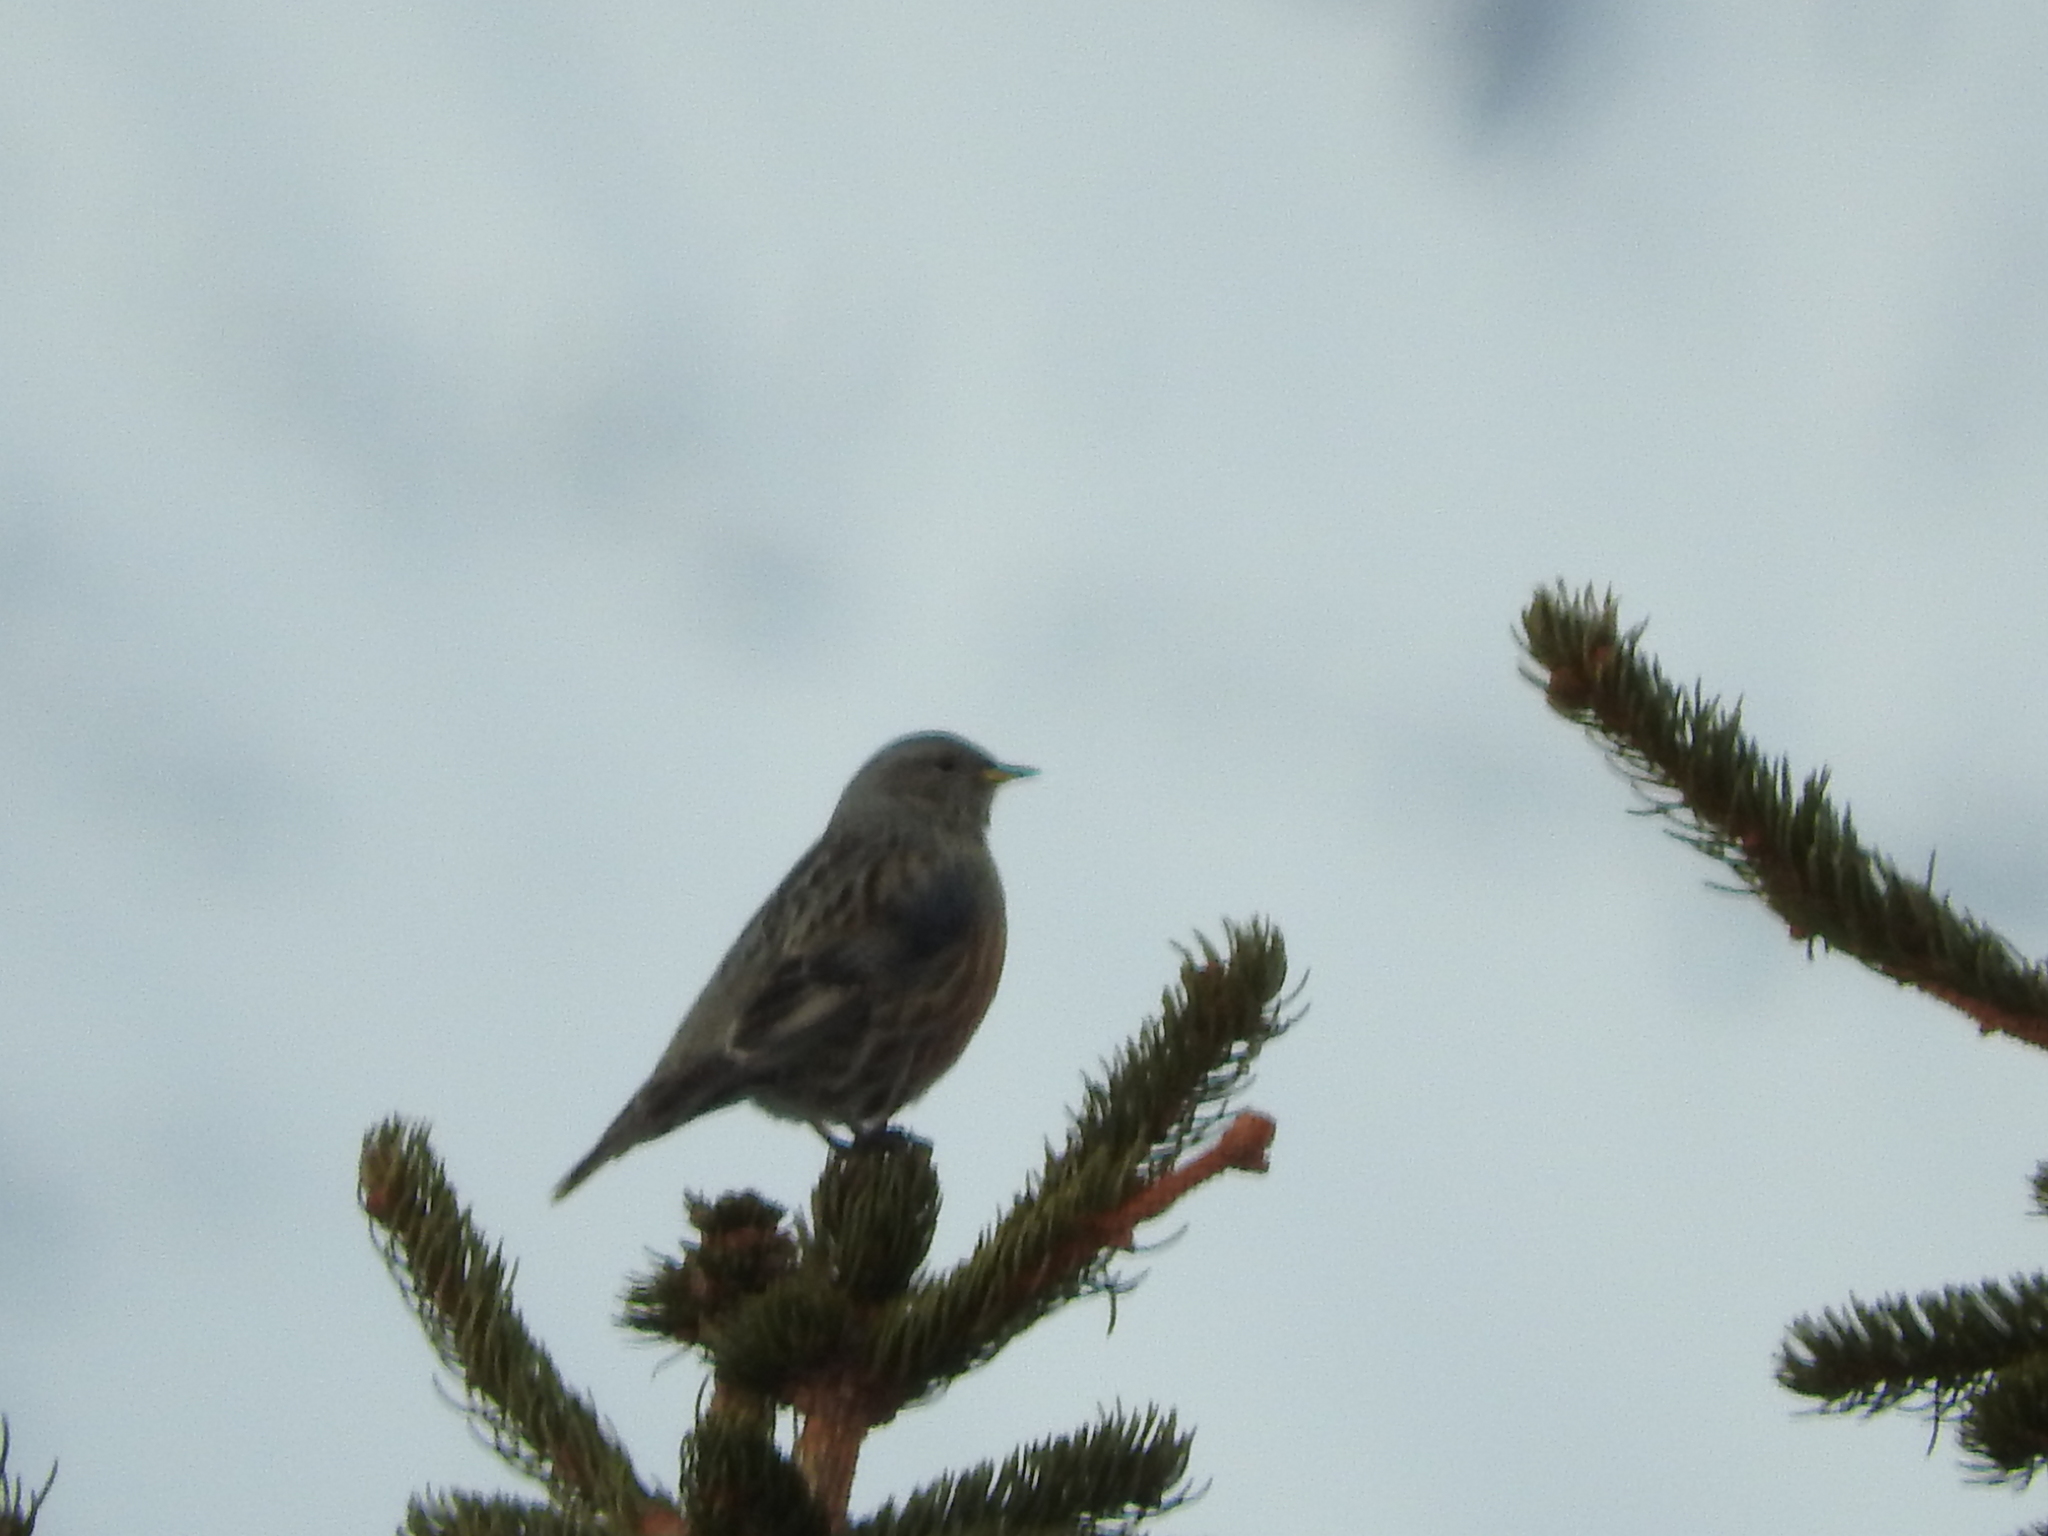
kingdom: Animalia
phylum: Chordata
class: Aves
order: Passeriformes
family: Prunellidae
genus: Prunella
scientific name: Prunella collaris
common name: Alpine accentor
